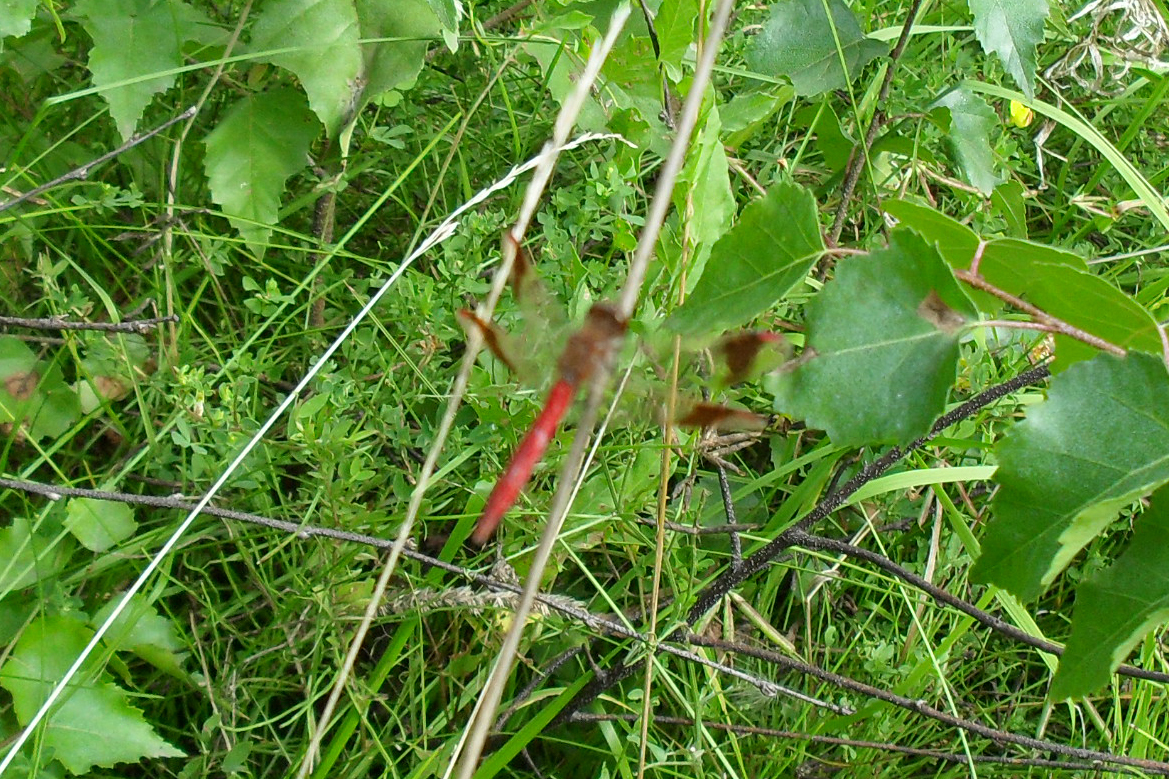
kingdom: Animalia
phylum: Arthropoda
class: Insecta
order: Odonata
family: Libellulidae
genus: Sympetrum
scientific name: Sympetrum pedemontanum
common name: Banded darter
